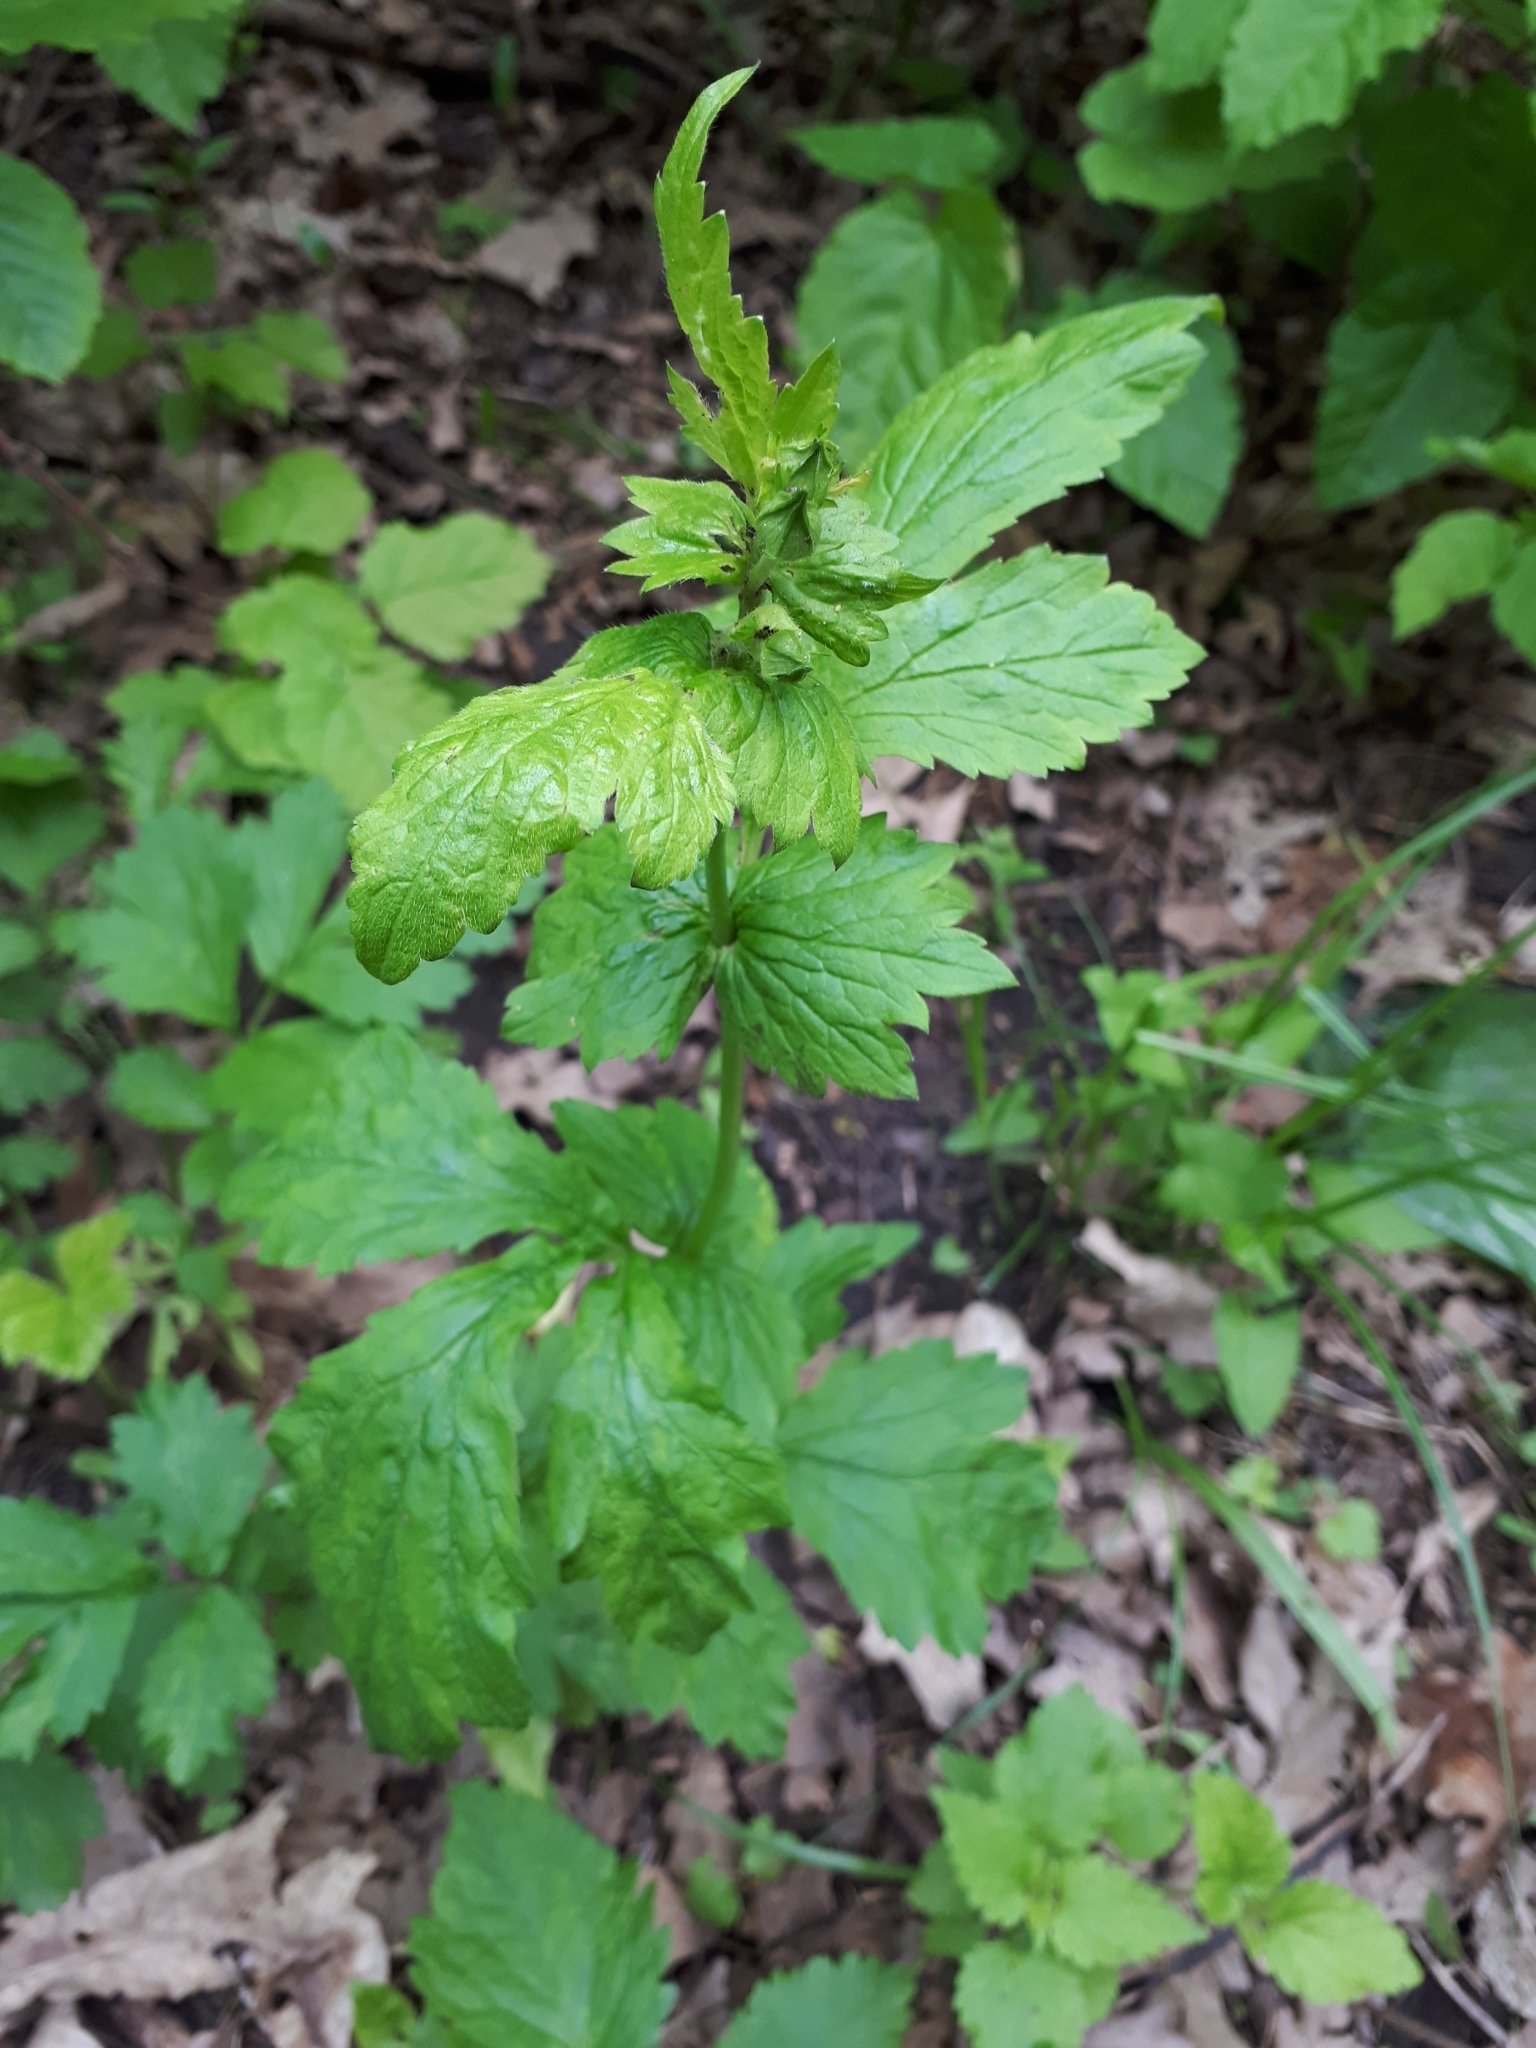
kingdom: Plantae
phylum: Tracheophyta
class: Magnoliopsida
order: Rosales
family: Rosaceae
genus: Geum
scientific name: Geum urbanum
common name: Wood avens
